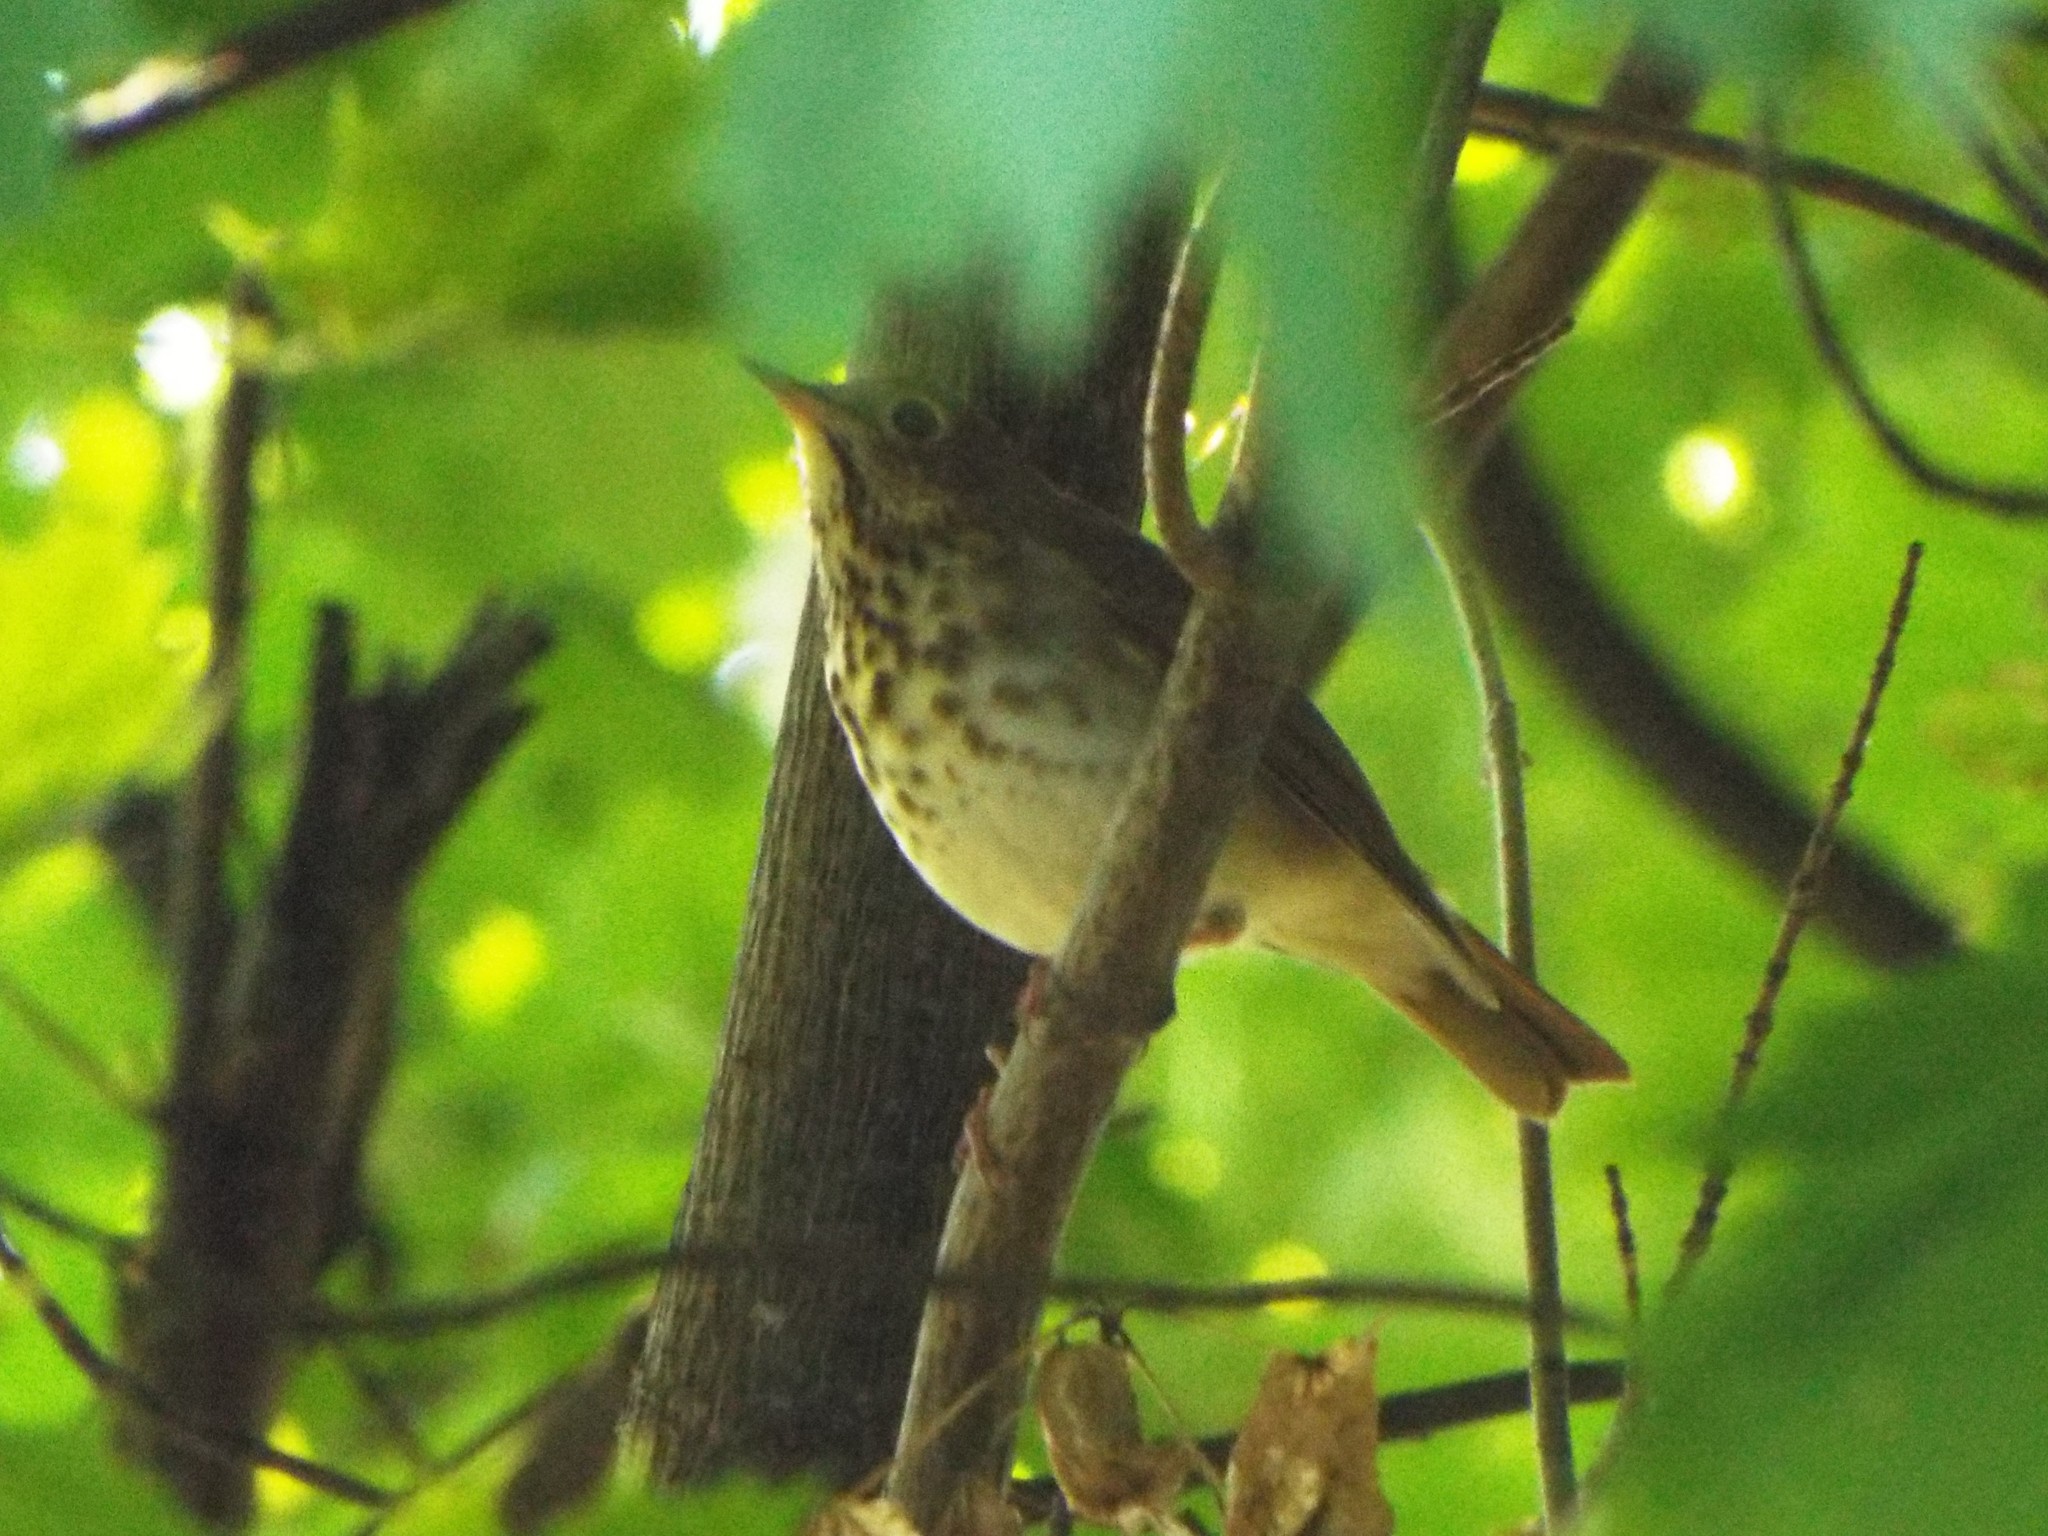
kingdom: Animalia
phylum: Chordata
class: Aves
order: Passeriformes
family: Turdidae
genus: Catharus
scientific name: Catharus guttatus
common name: Hermit thrush
